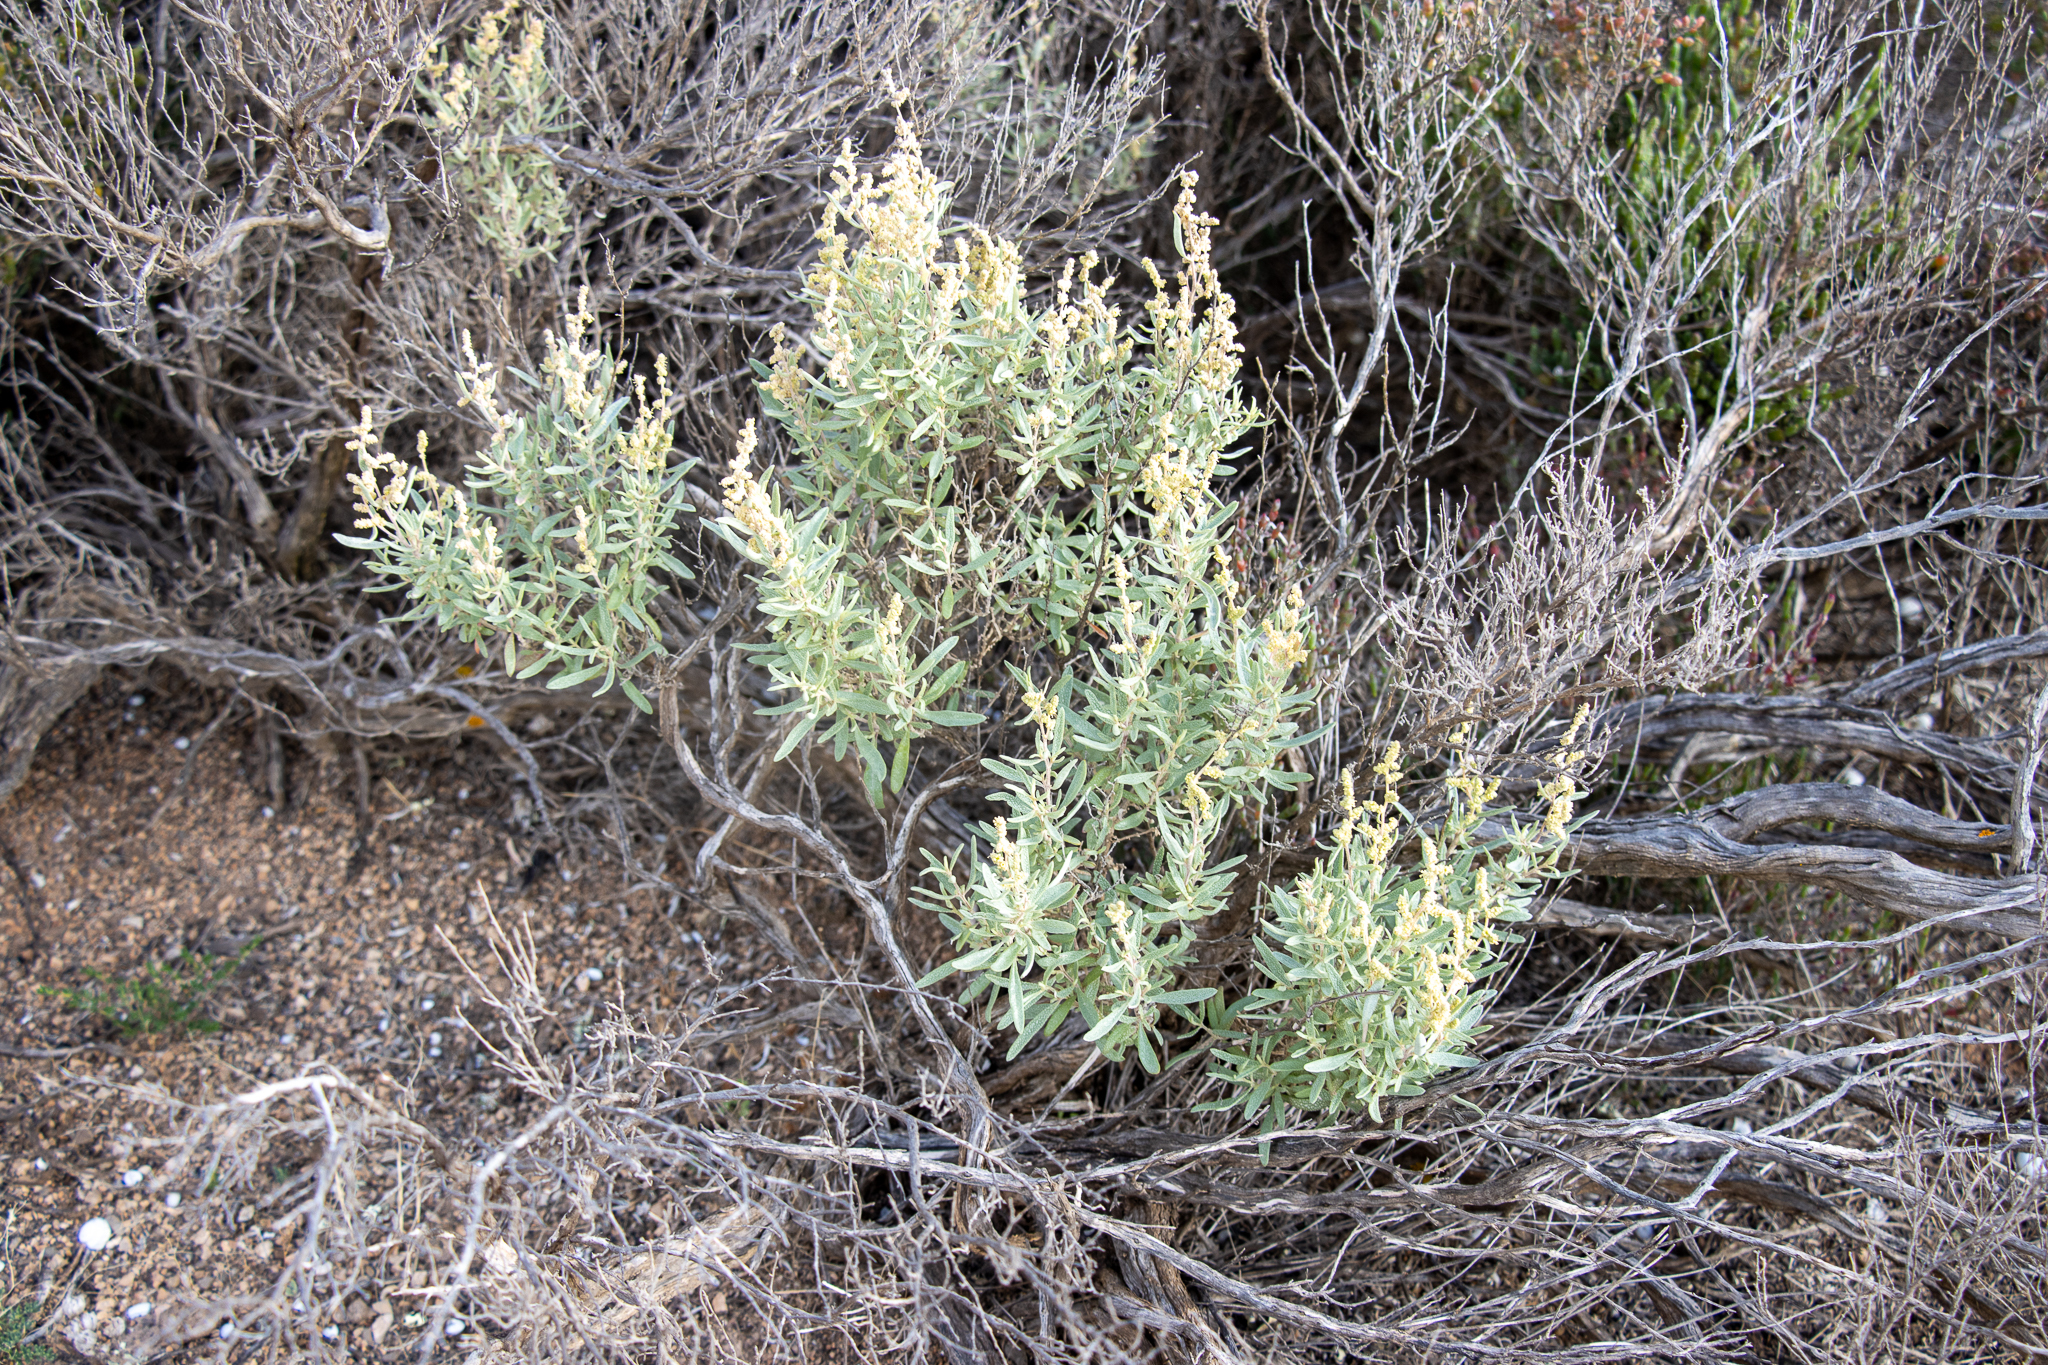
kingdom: Plantae
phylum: Tracheophyta
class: Magnoliopsida
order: Caryophyllales
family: Amaranthaceae
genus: Atriplex
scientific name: Atriplex paludosa
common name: Marsh saltbush
